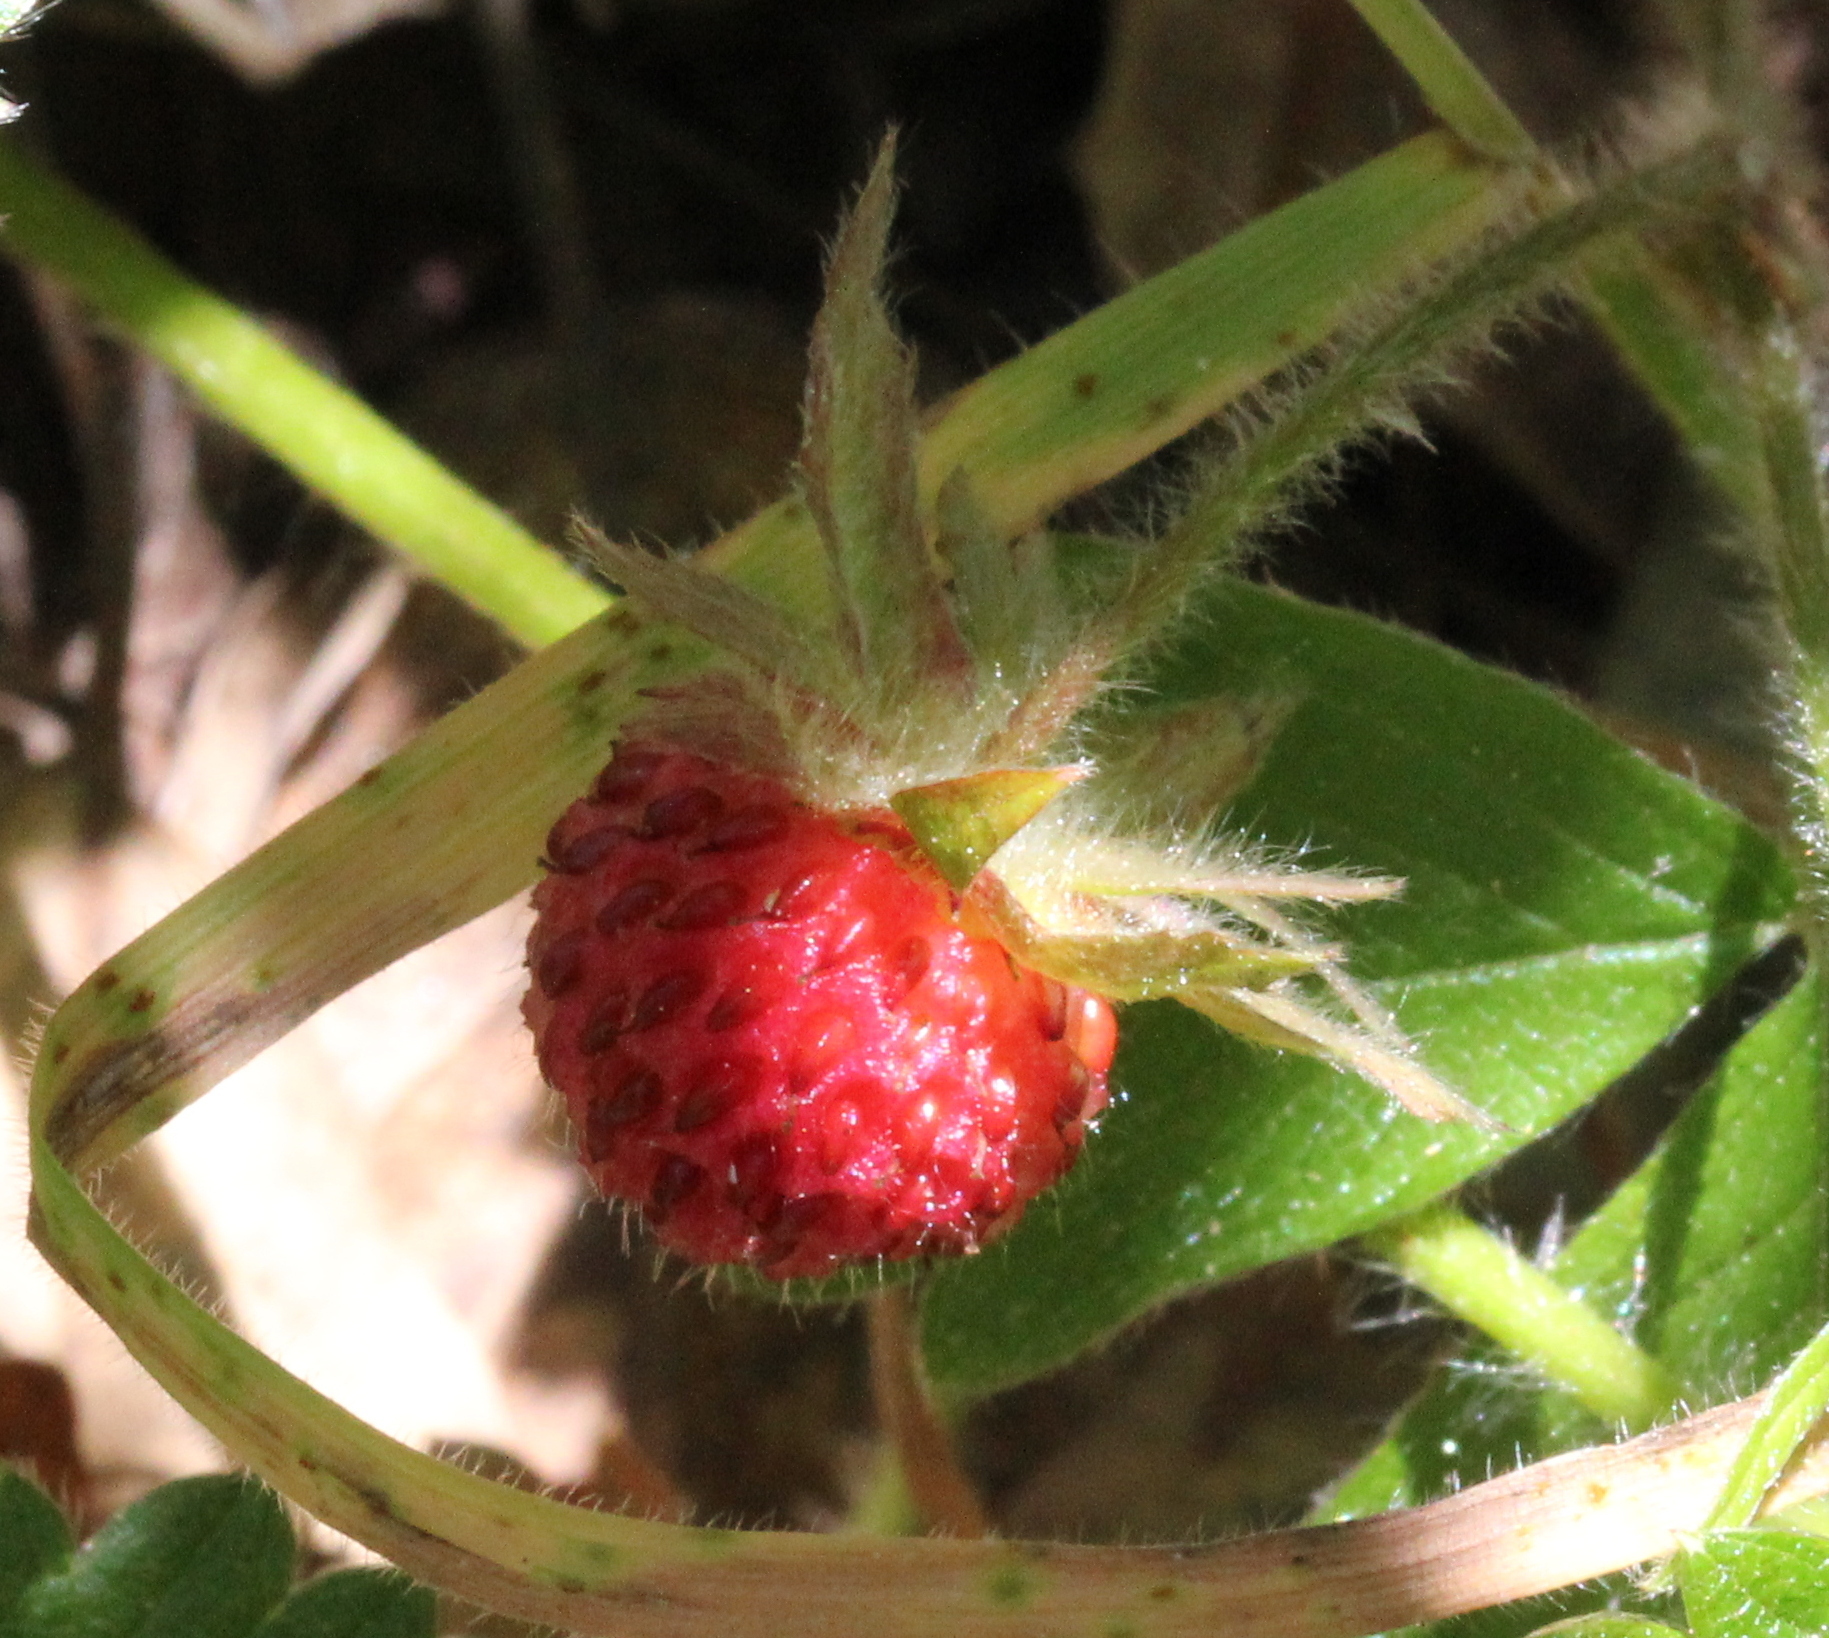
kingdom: Plantae
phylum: Tracheophyta
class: Magnoliopsida
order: Rosales
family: Rosaceae
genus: Fragaria
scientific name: Fragaria vesca
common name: Wild strawberry
